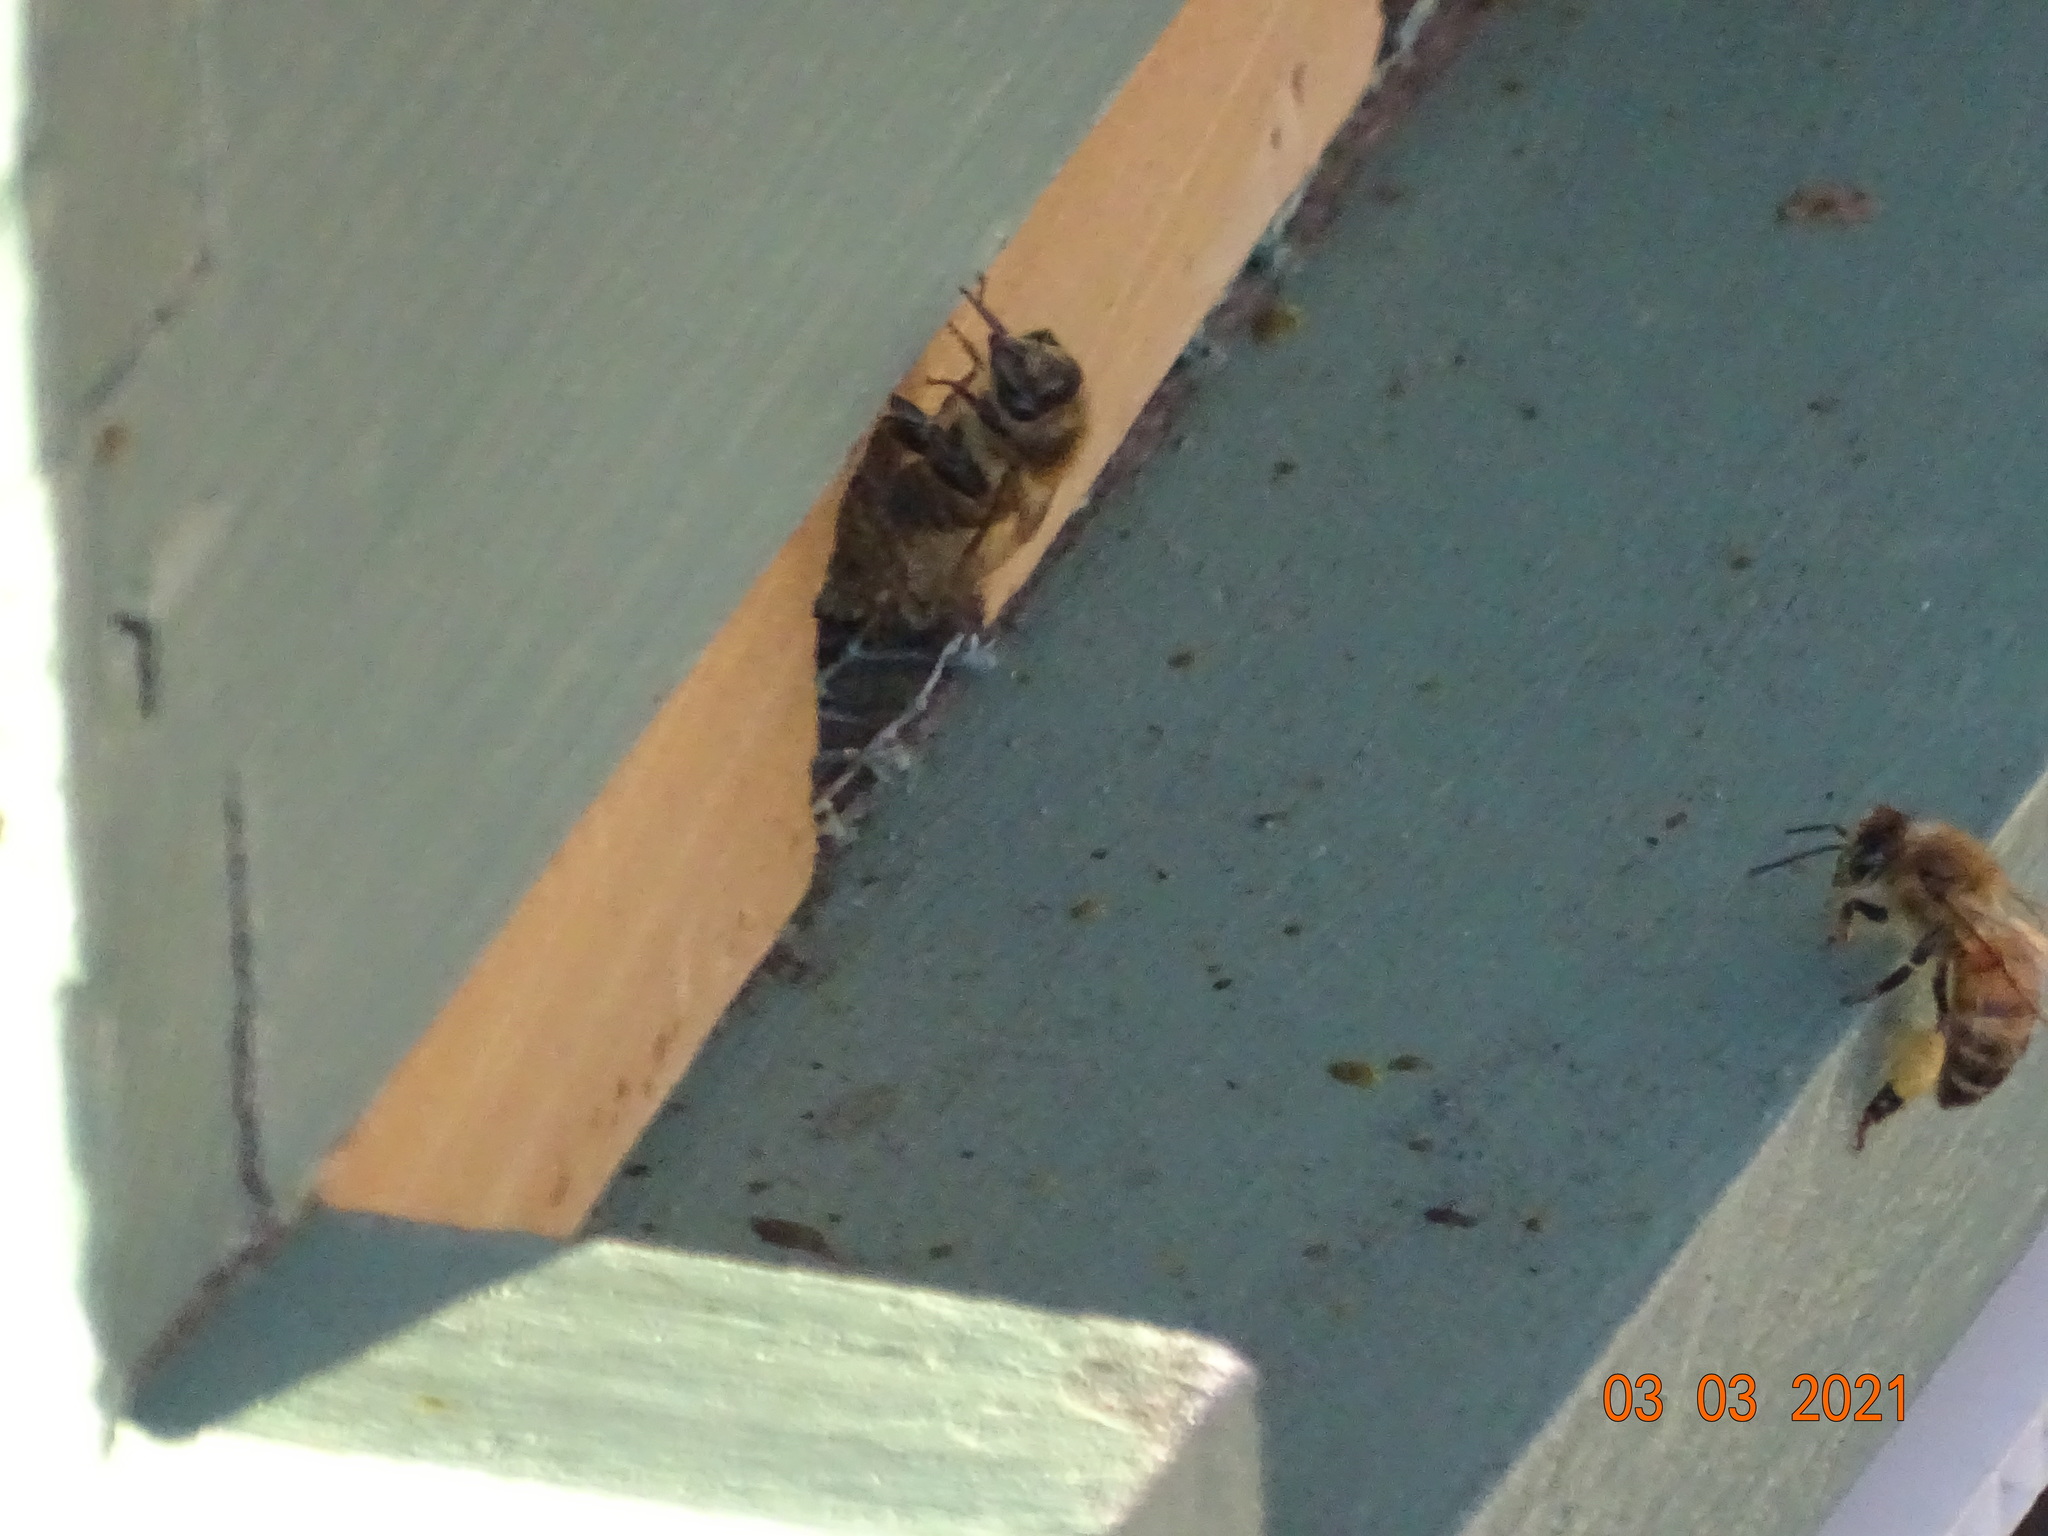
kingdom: Animalia
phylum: Arthropoda
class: Insecta
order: Hymenoptera
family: Apidae
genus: Apis
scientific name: Apis mellifera
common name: Honey bee
